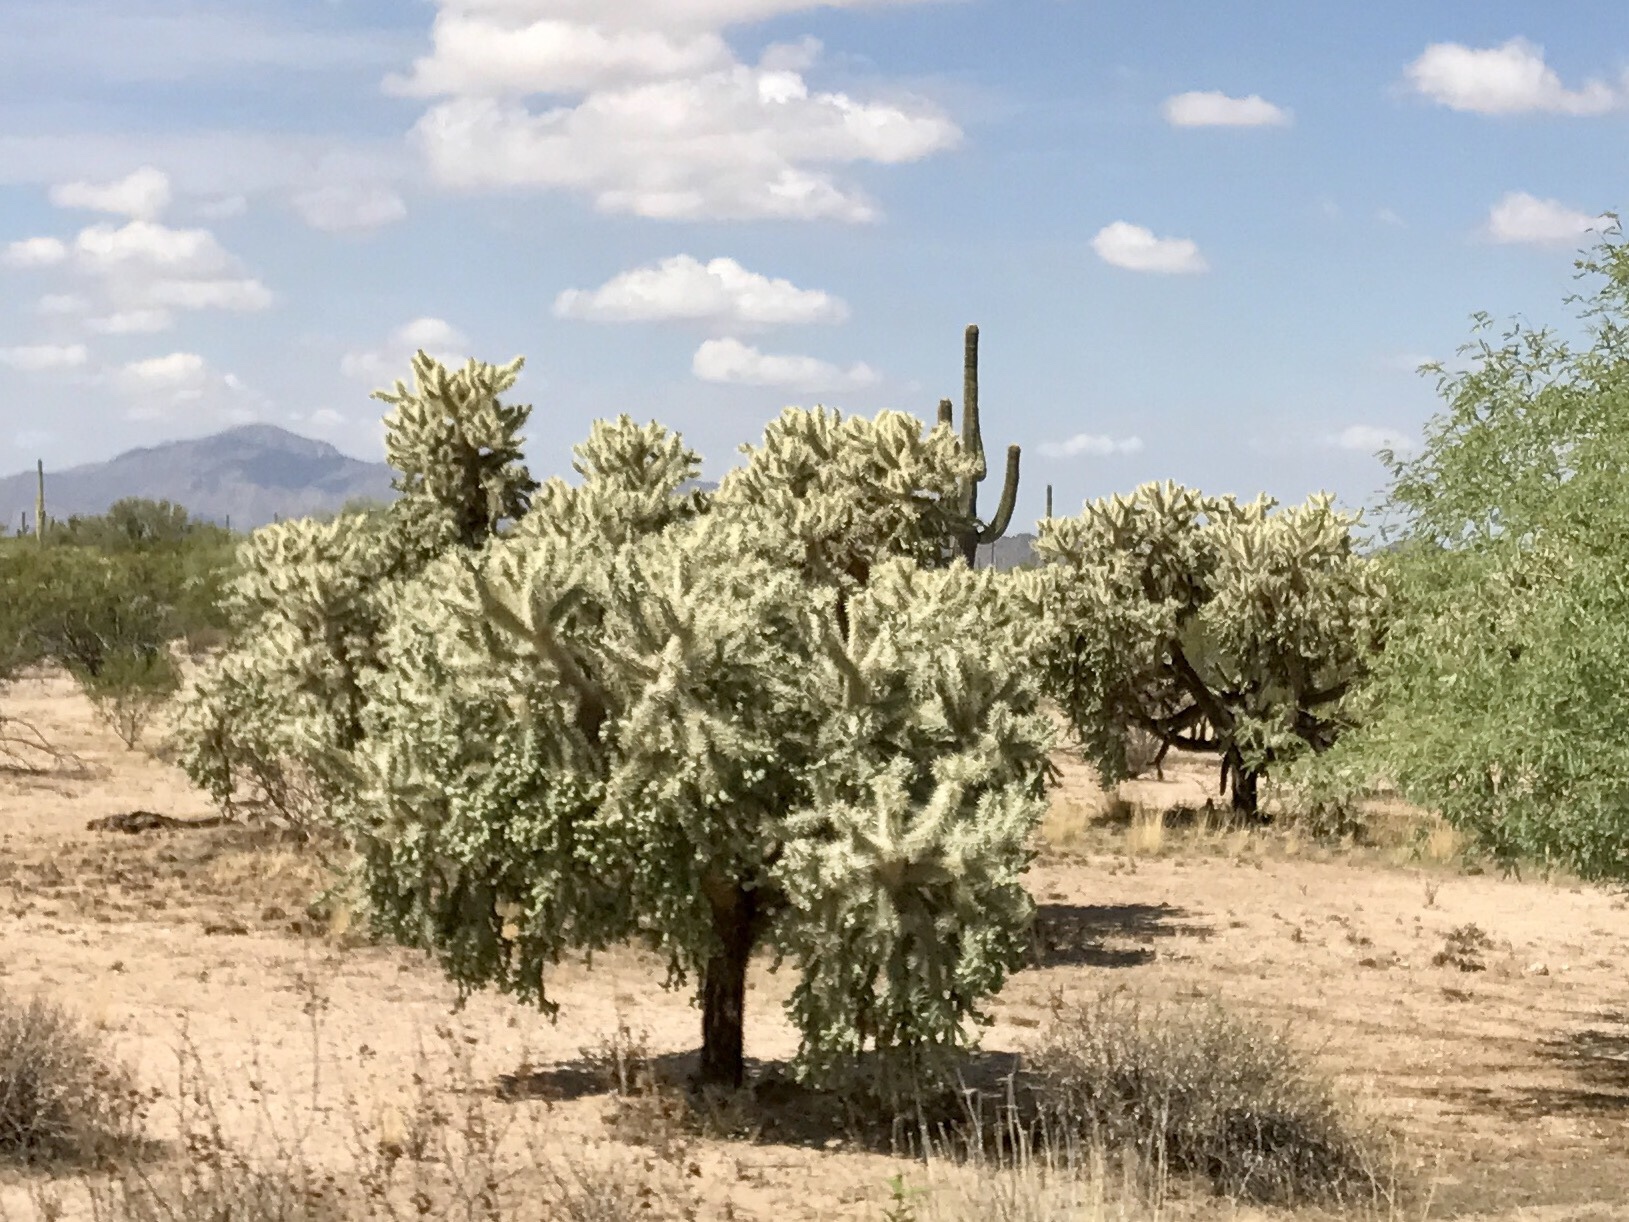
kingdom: Plantae
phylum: Tracheophyta
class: Magnoliopsida
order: Caryophyllales
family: Cactaceae
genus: Cylindropuntia
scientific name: Cylindropuntia fulgida
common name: Jumping cholla
